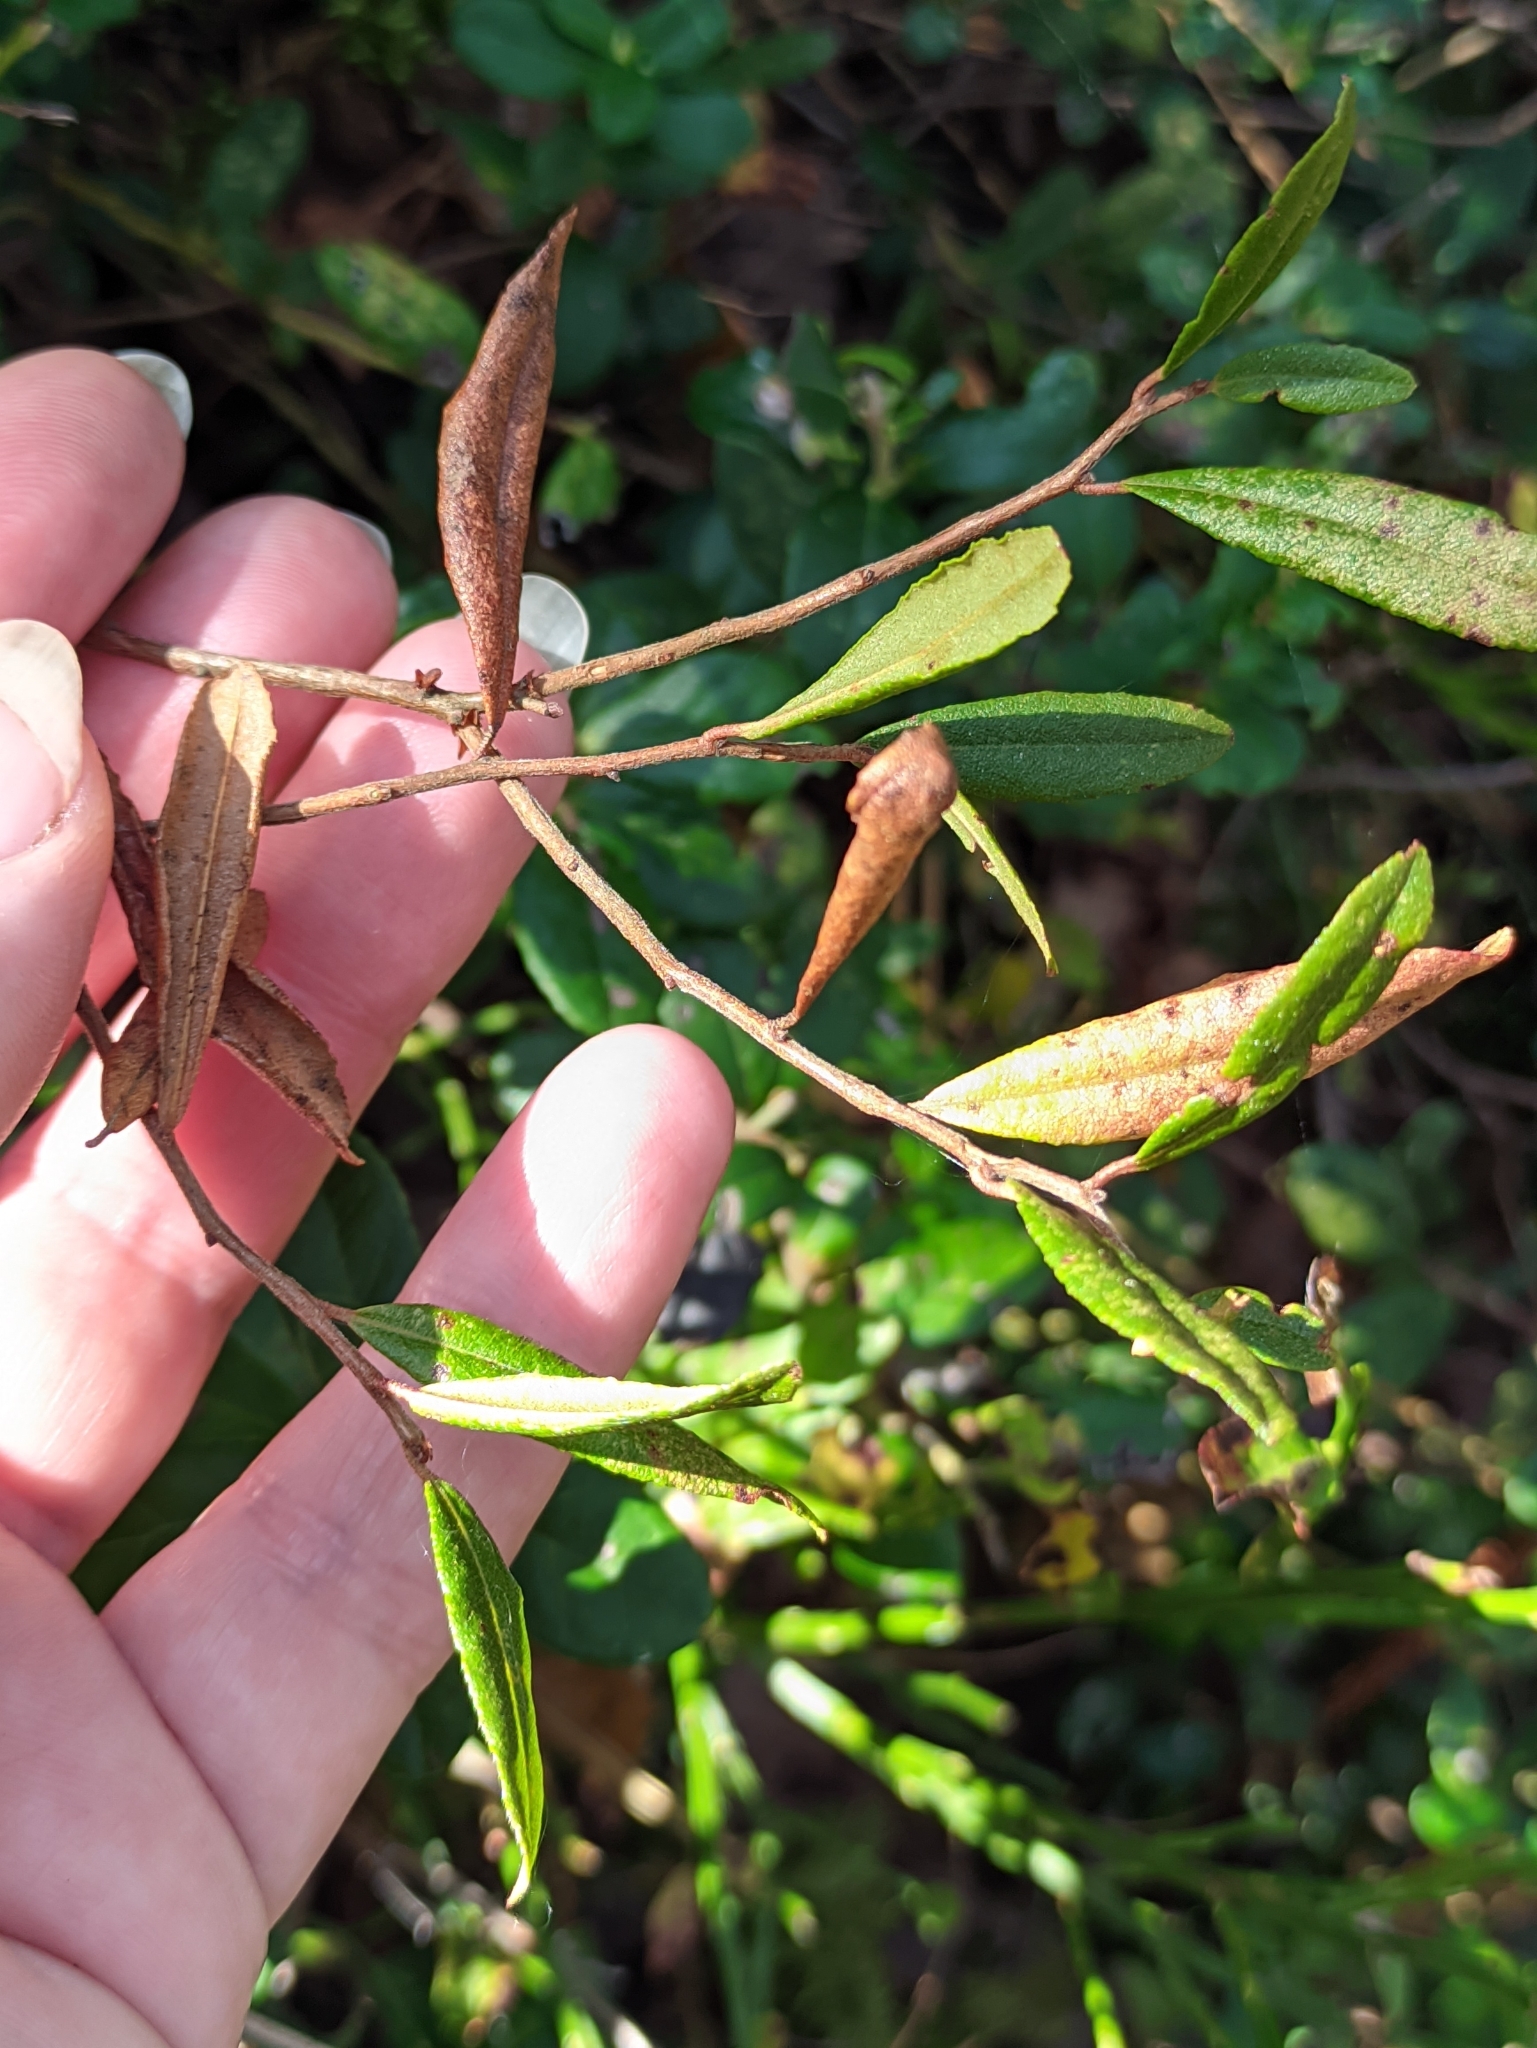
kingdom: Plantae
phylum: Tracheophyta
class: Magnoliopsida
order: Ericales
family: Ericaceae
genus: Chamaedaphne
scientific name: Chamaedaphne calyculata
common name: Leatherleaf
